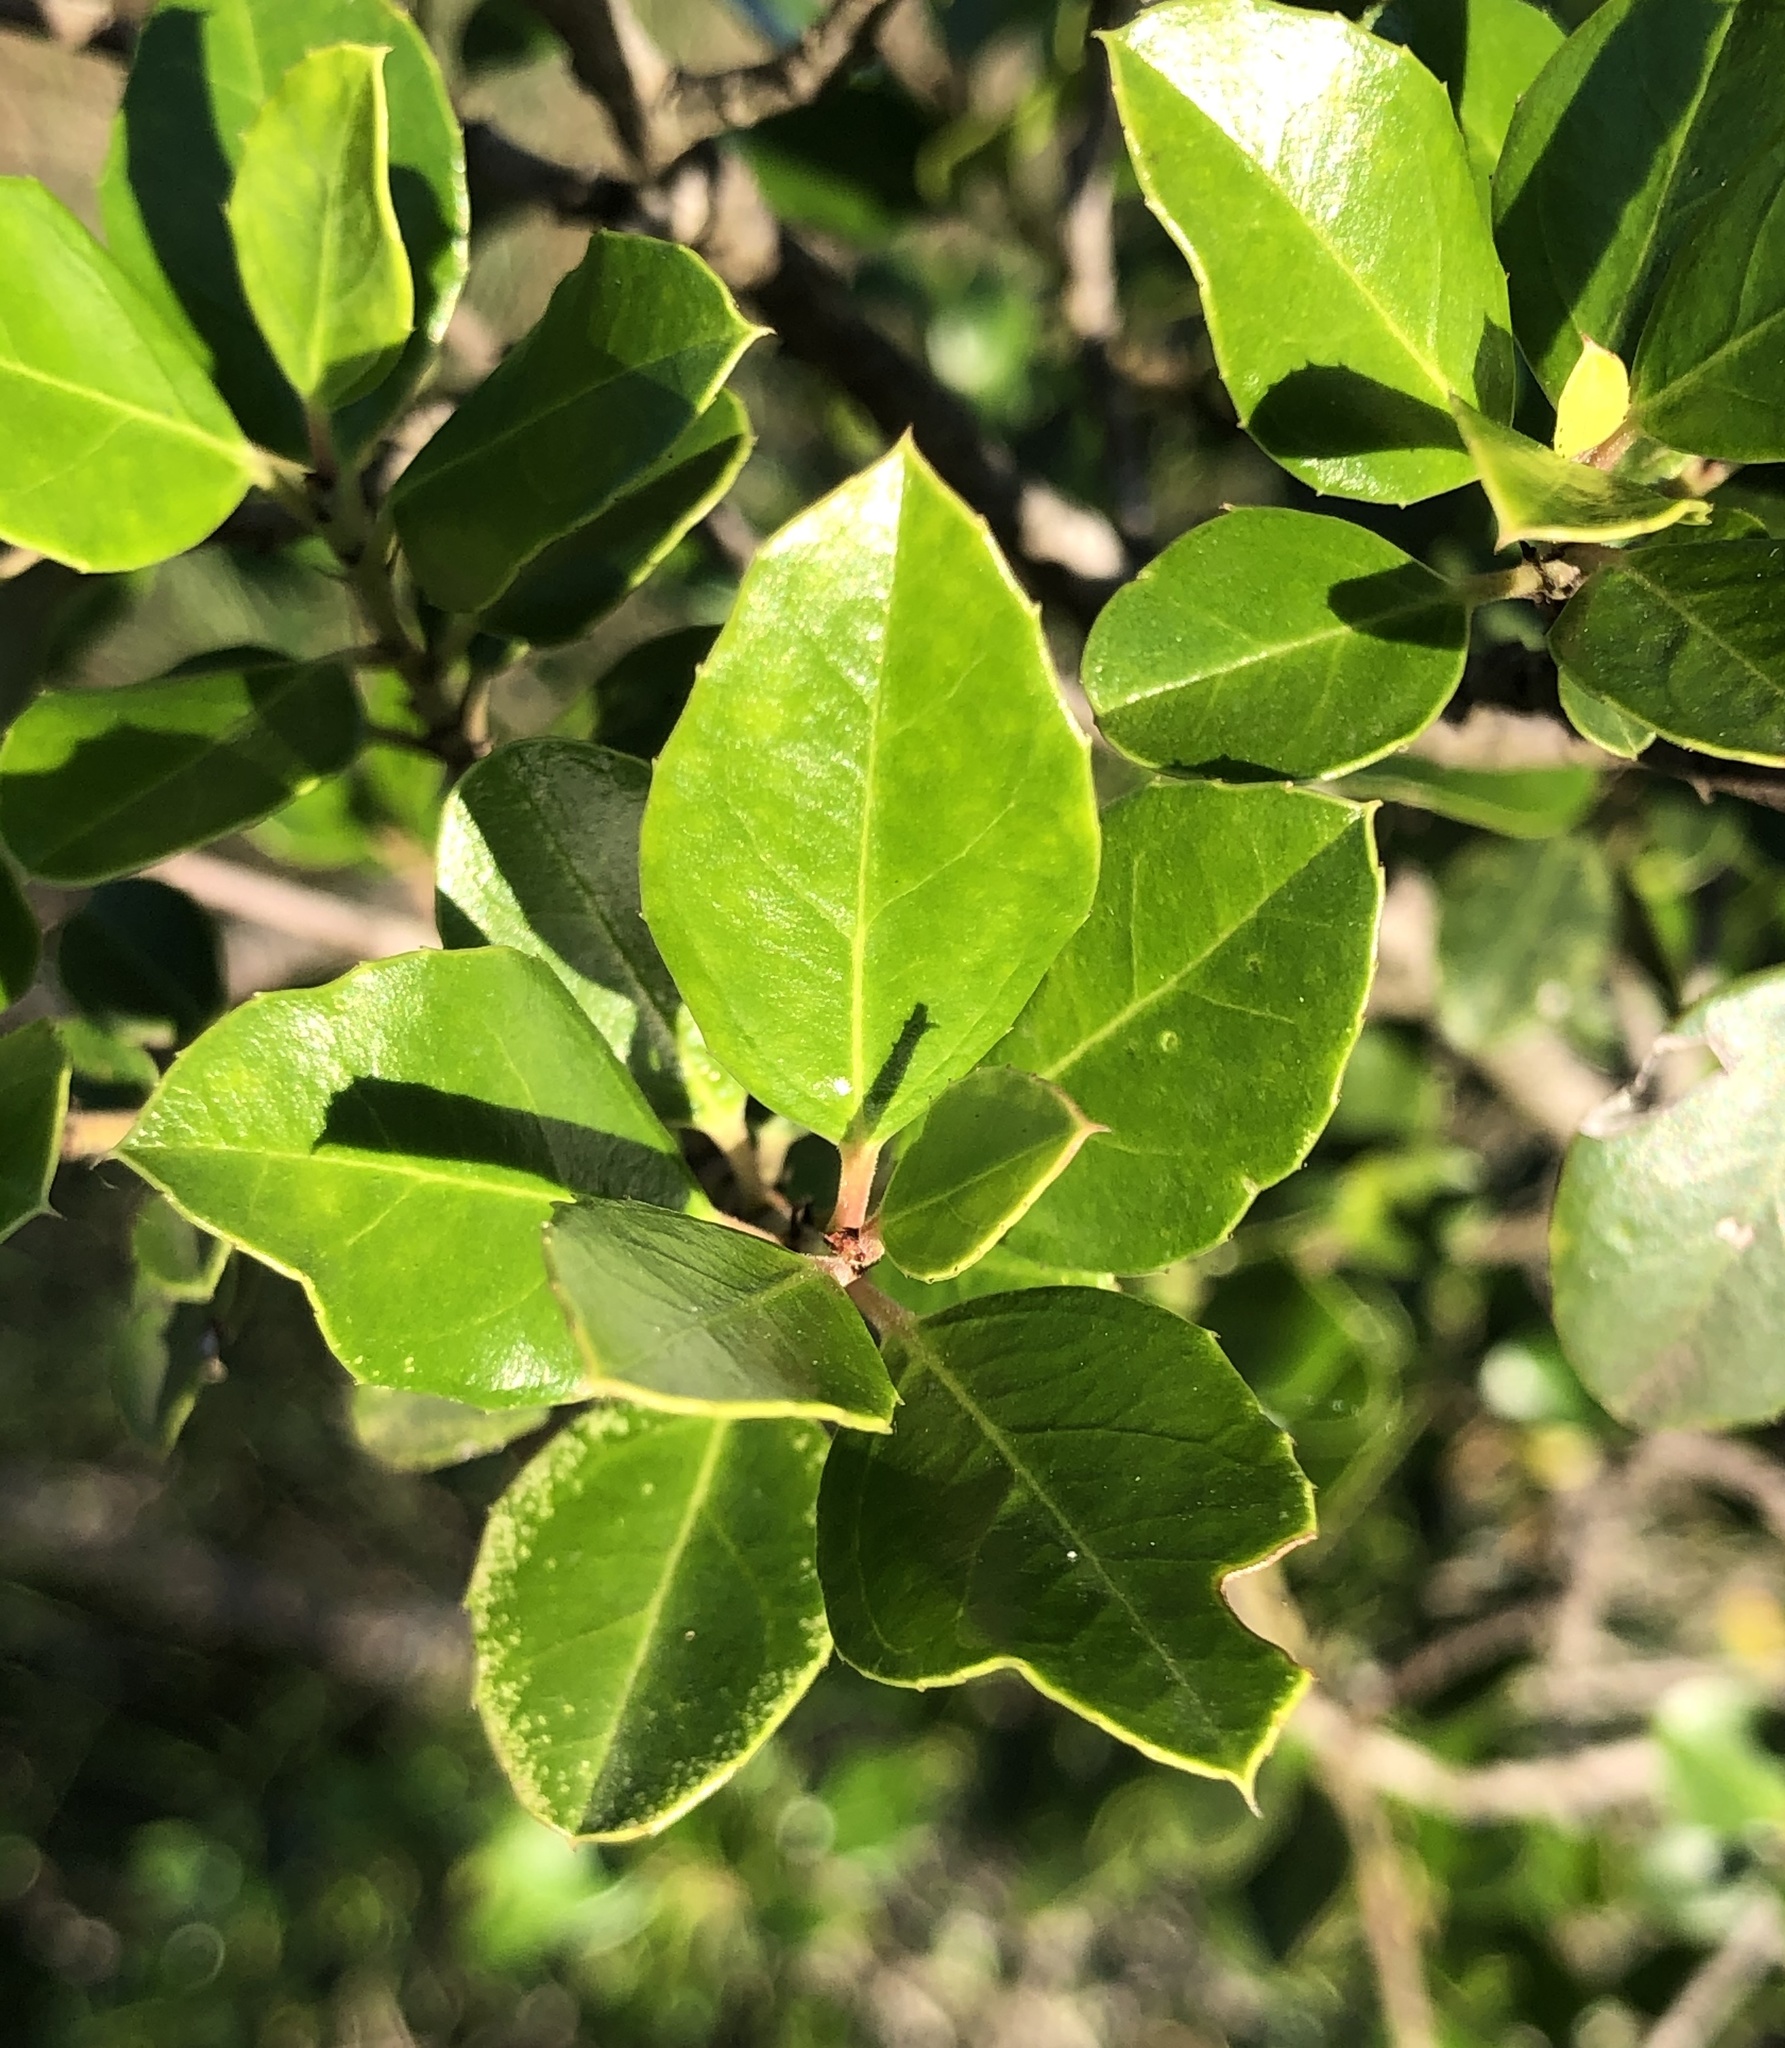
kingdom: Plantae
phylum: Tracheophyta
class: Magnoliopsida
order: Rosales
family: Rhamnaceae
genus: Rhamnus
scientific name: Rhamnus alaternus
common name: Mediterranean buckthorn
